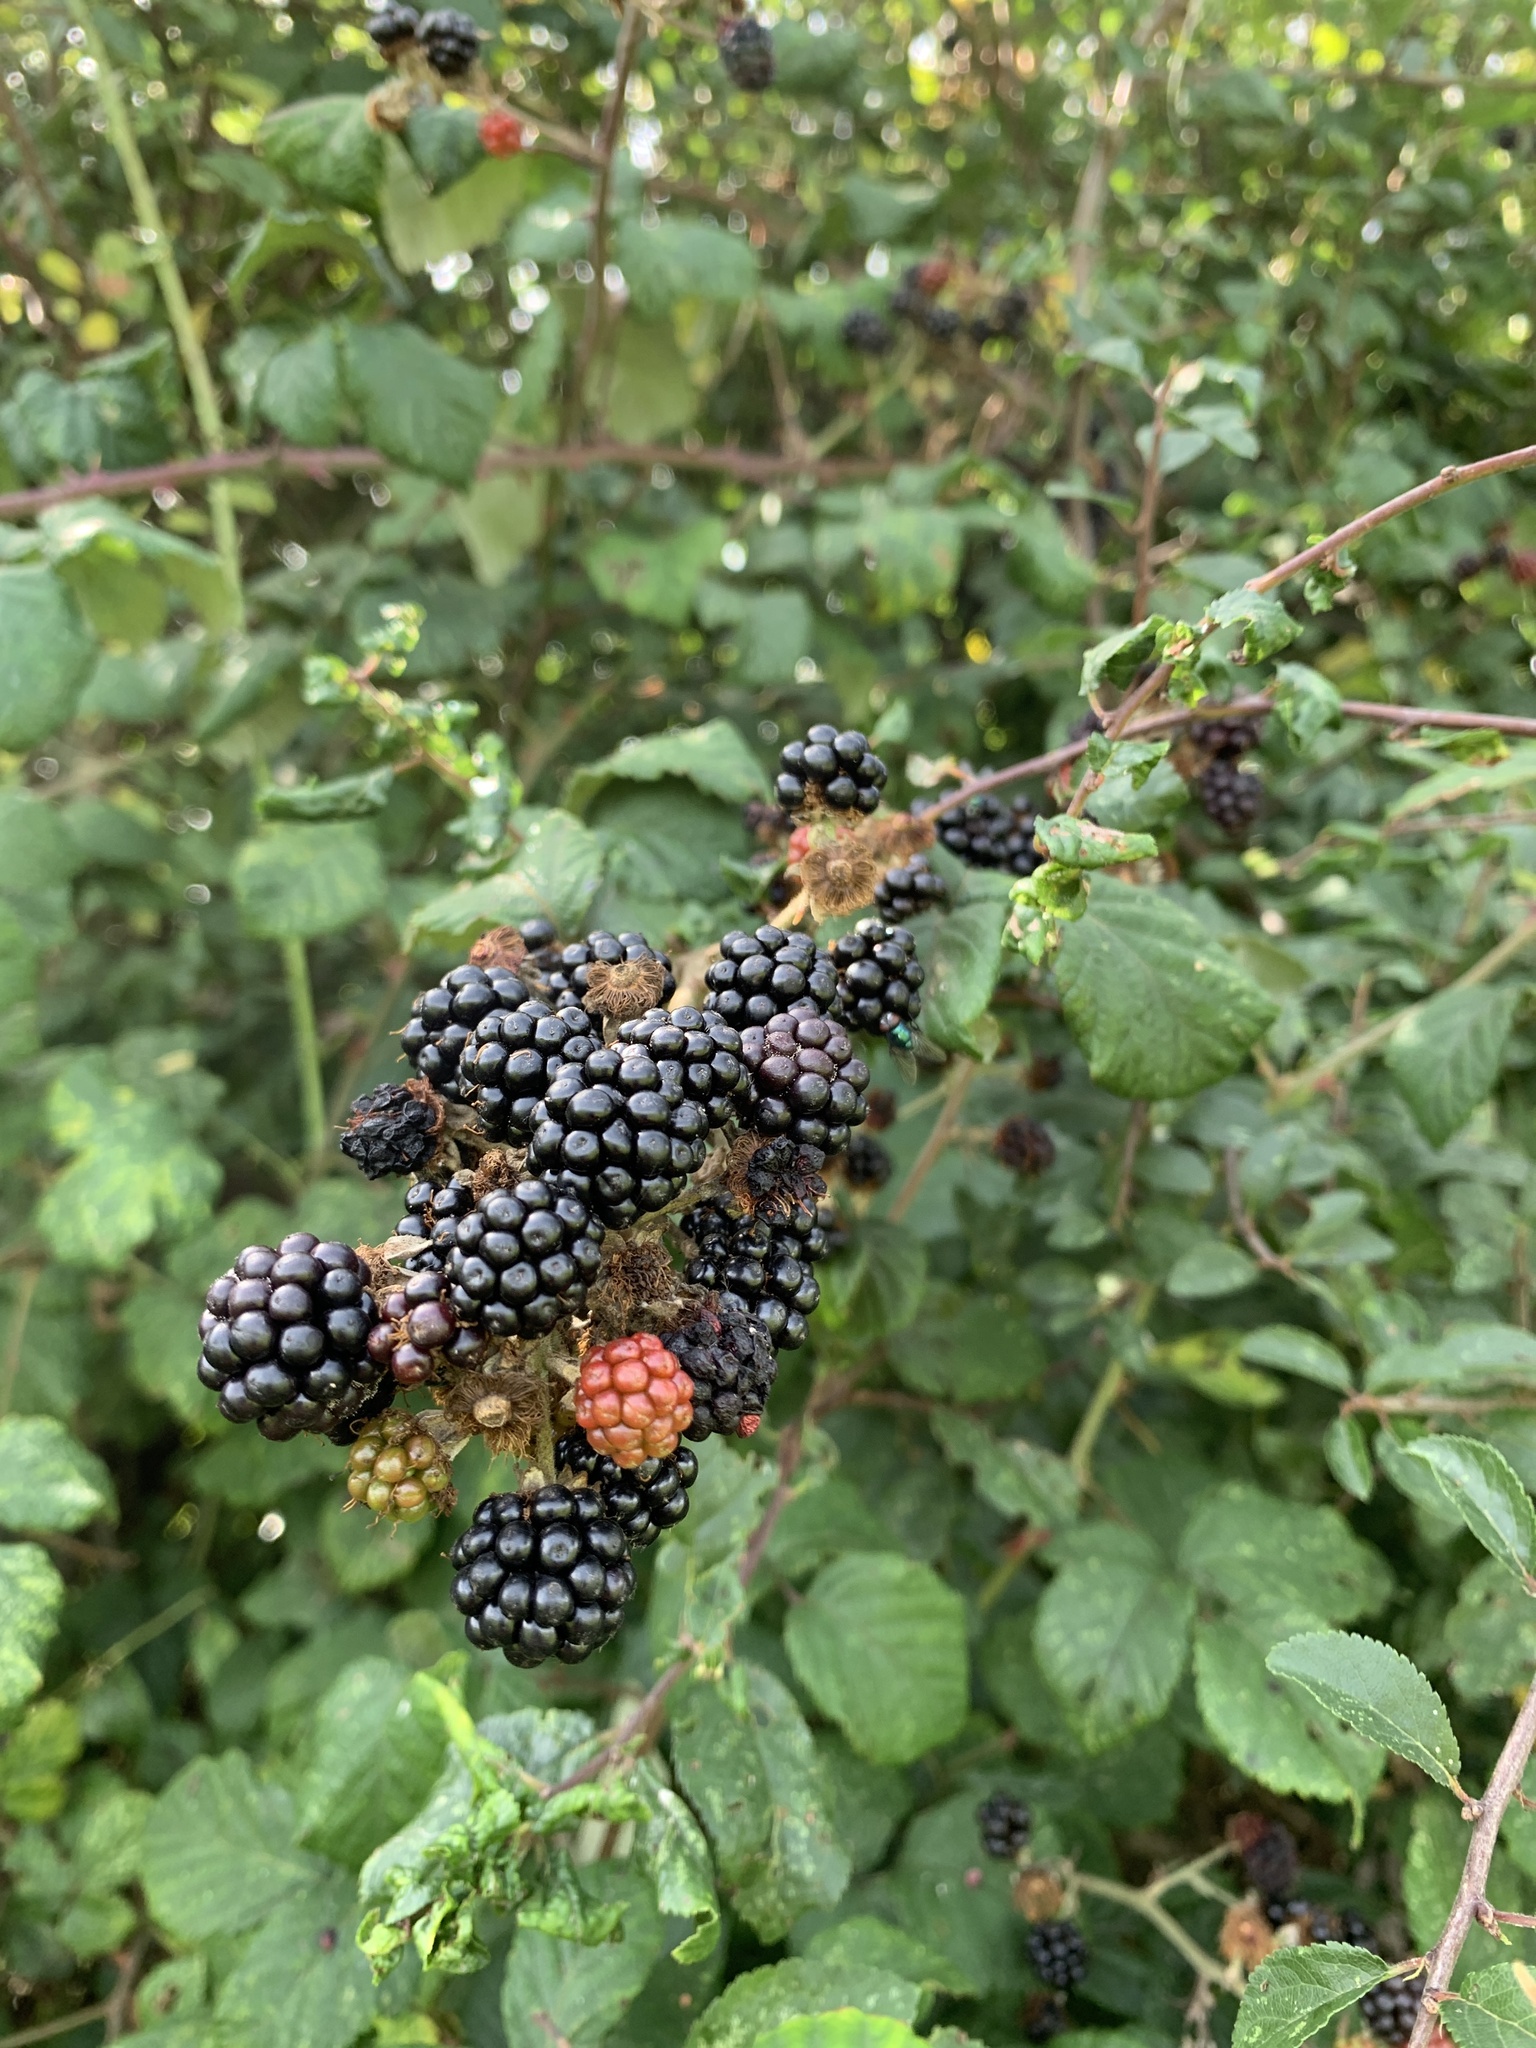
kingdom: Plantae
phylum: Tracheophyta
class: Magnoliopsida
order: Rosales
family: Rosaceae
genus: Rubus
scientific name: Rubus fruticosus
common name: Blackberry, bramble
